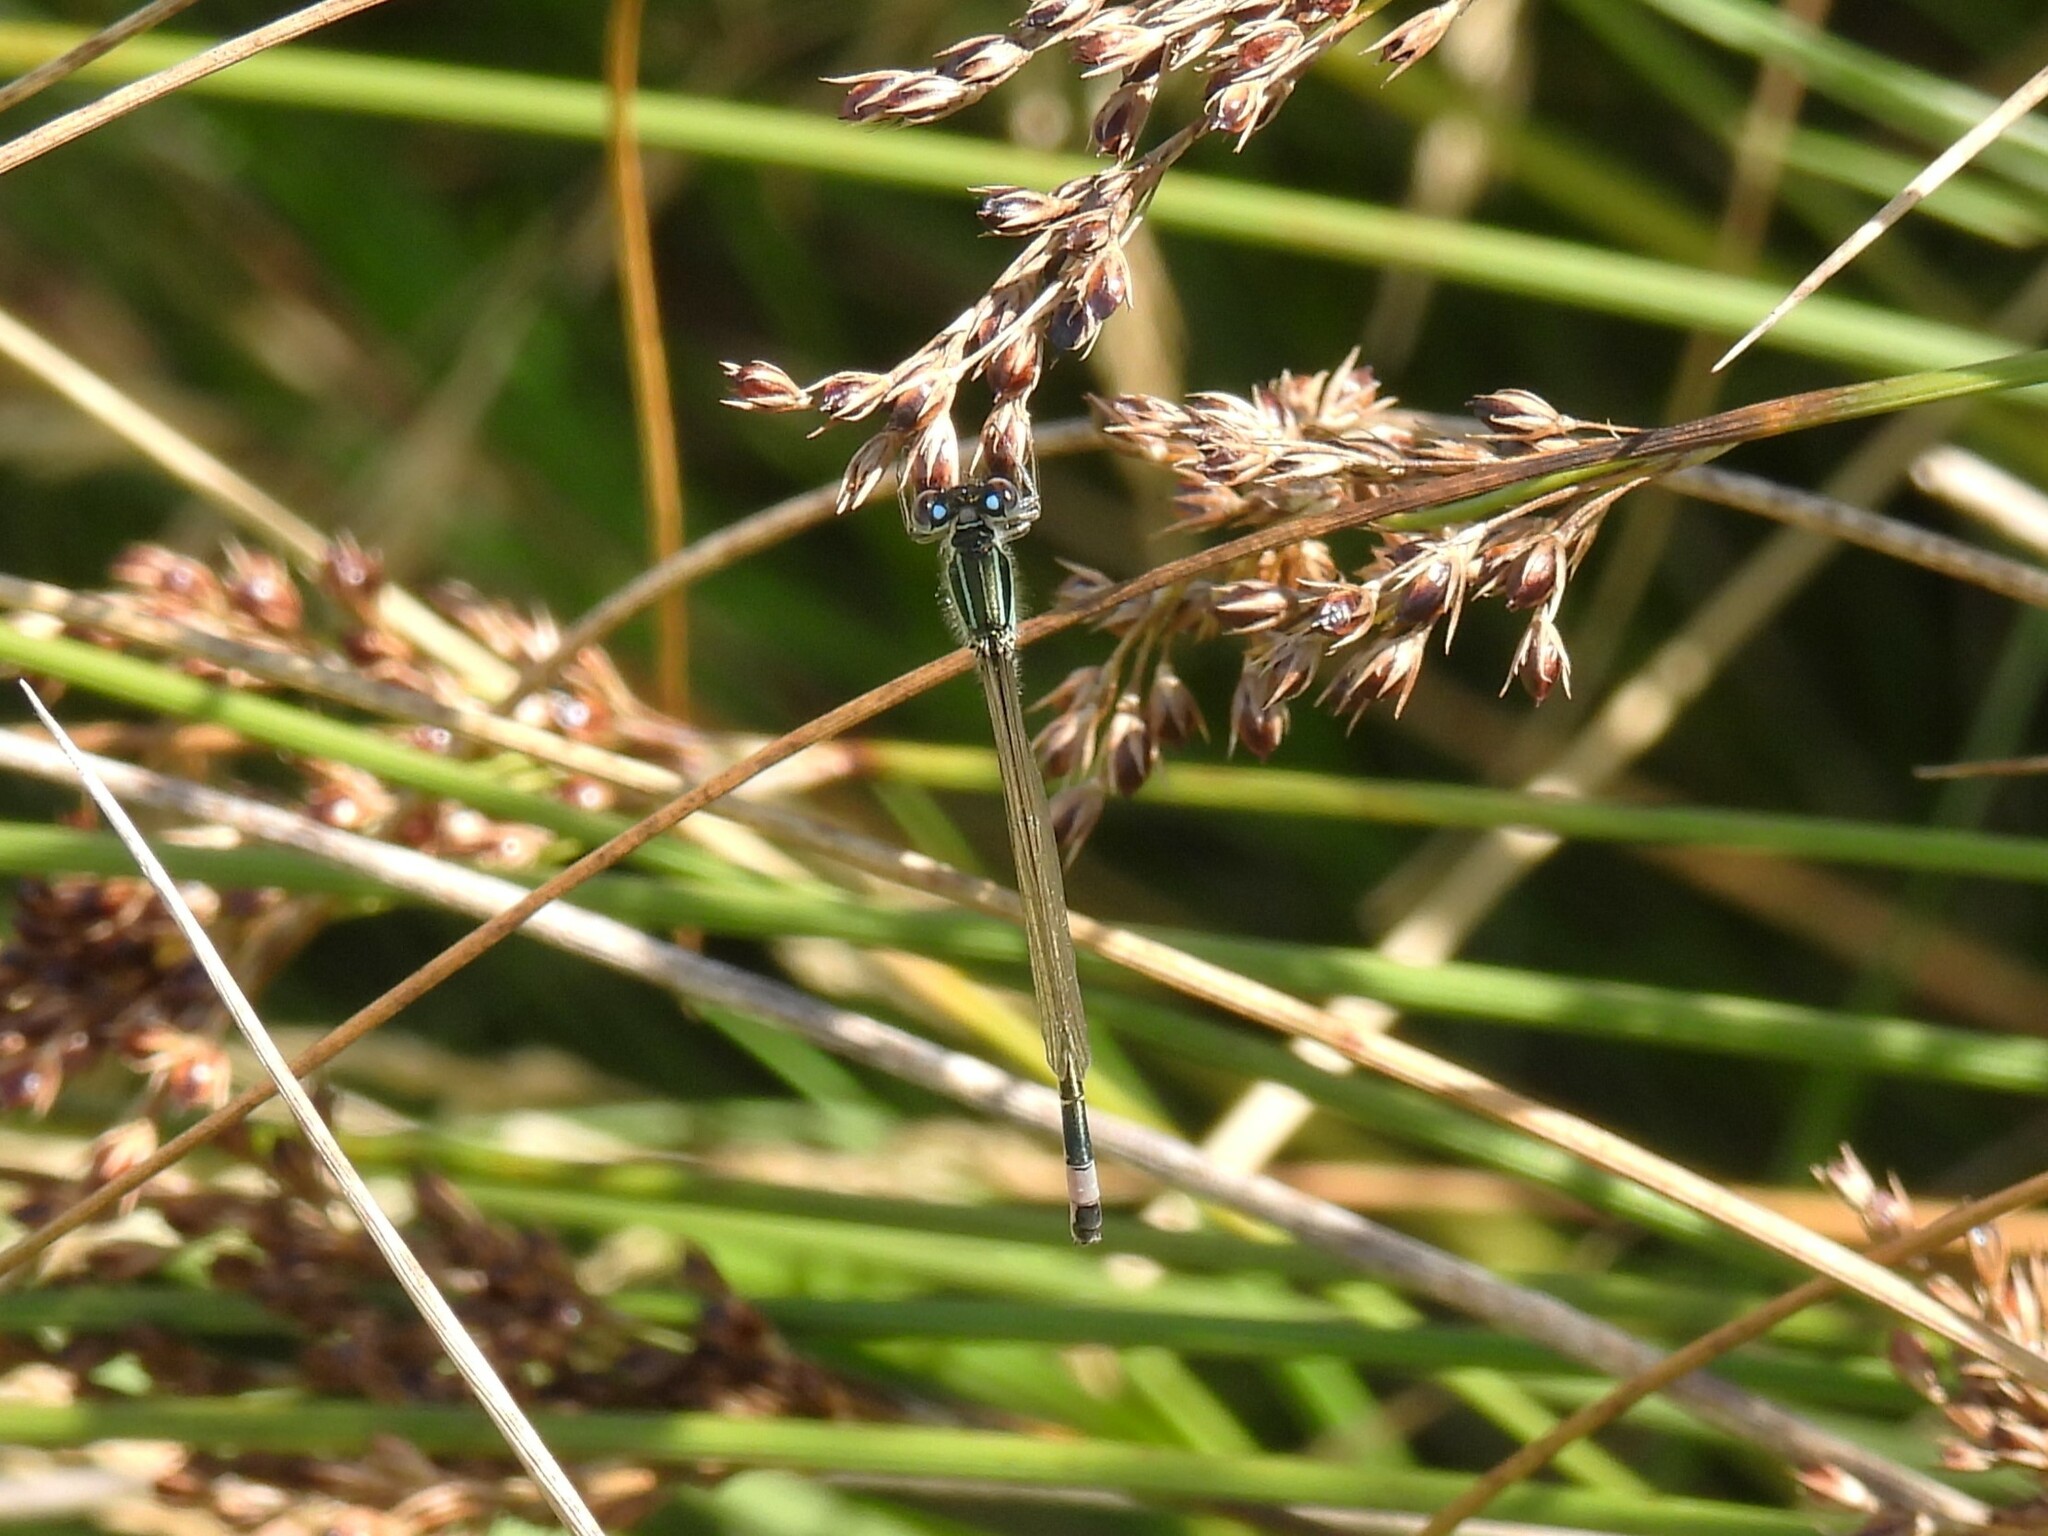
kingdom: Animalia
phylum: Arthropoda
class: Insecta
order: Odonata
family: Coenagrionidae
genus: Ischnura
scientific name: Ischnura elegans
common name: Blue-tailed damselfly
